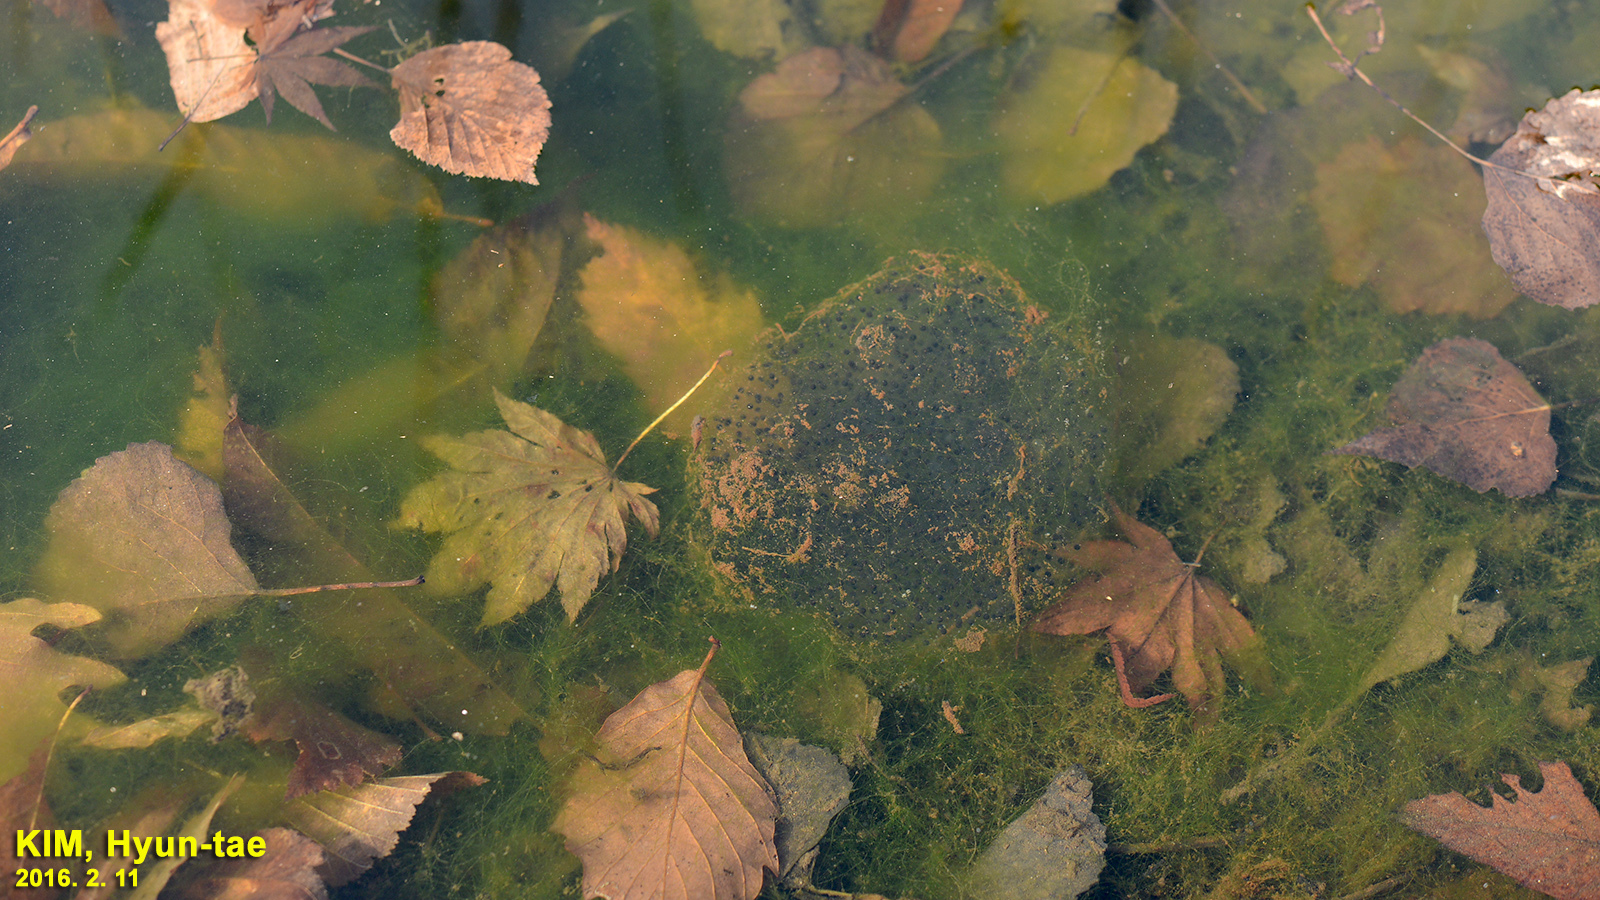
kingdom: Animalia
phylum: Chordata
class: Amphibia
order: Anura
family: Ranidae
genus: Rana
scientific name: Rana uenoi
